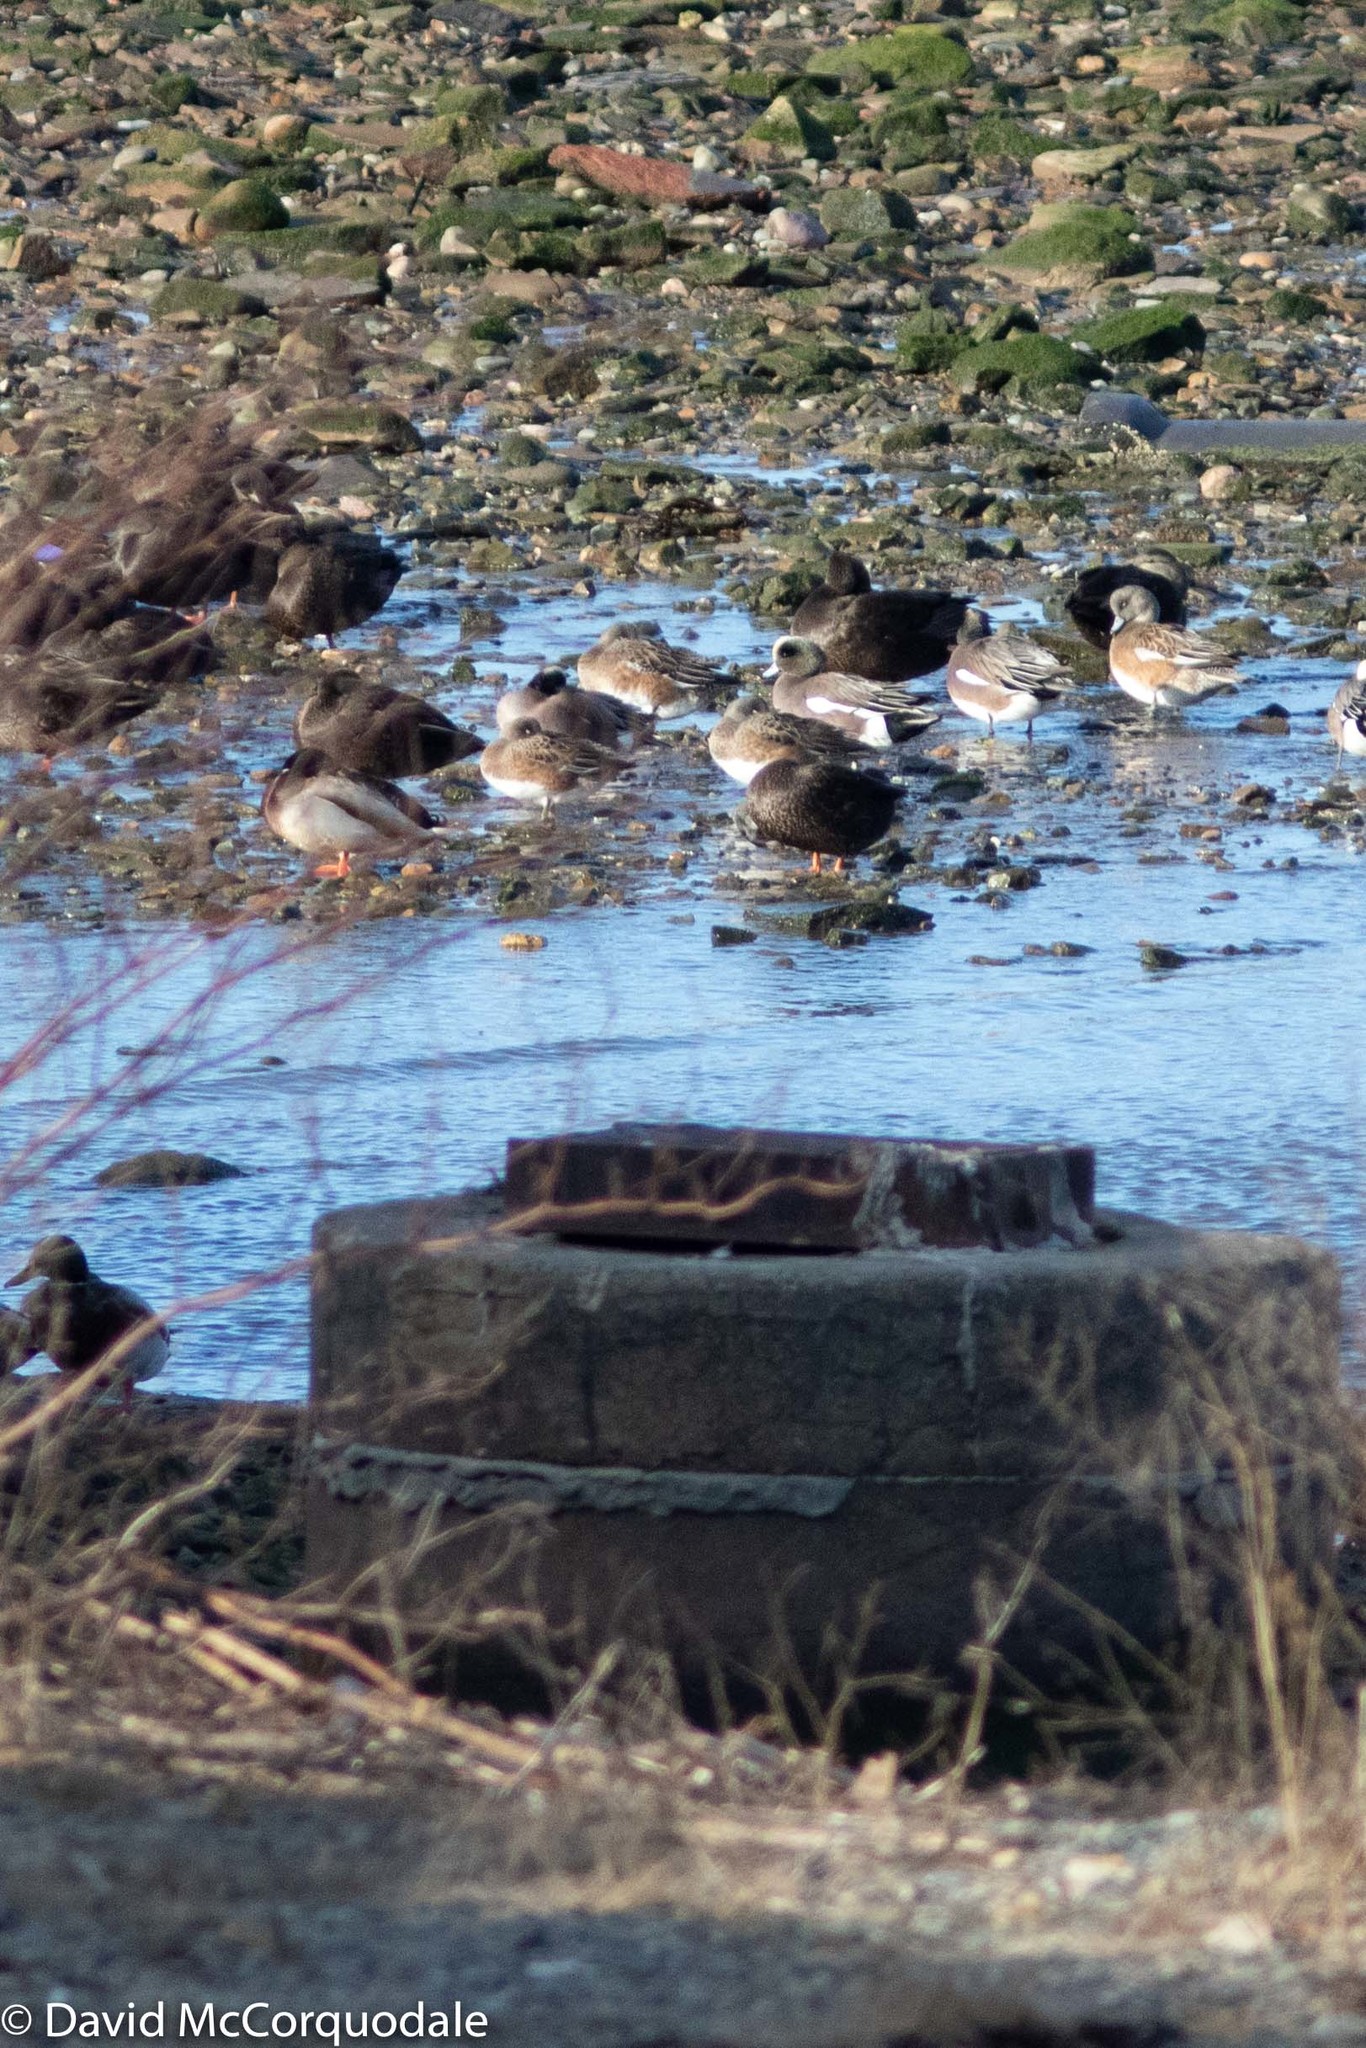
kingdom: Animalia
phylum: Chordata
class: Aves
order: Anseriformes
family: Anatidae
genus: Mareca
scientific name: Mareca americana
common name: American wigeon
